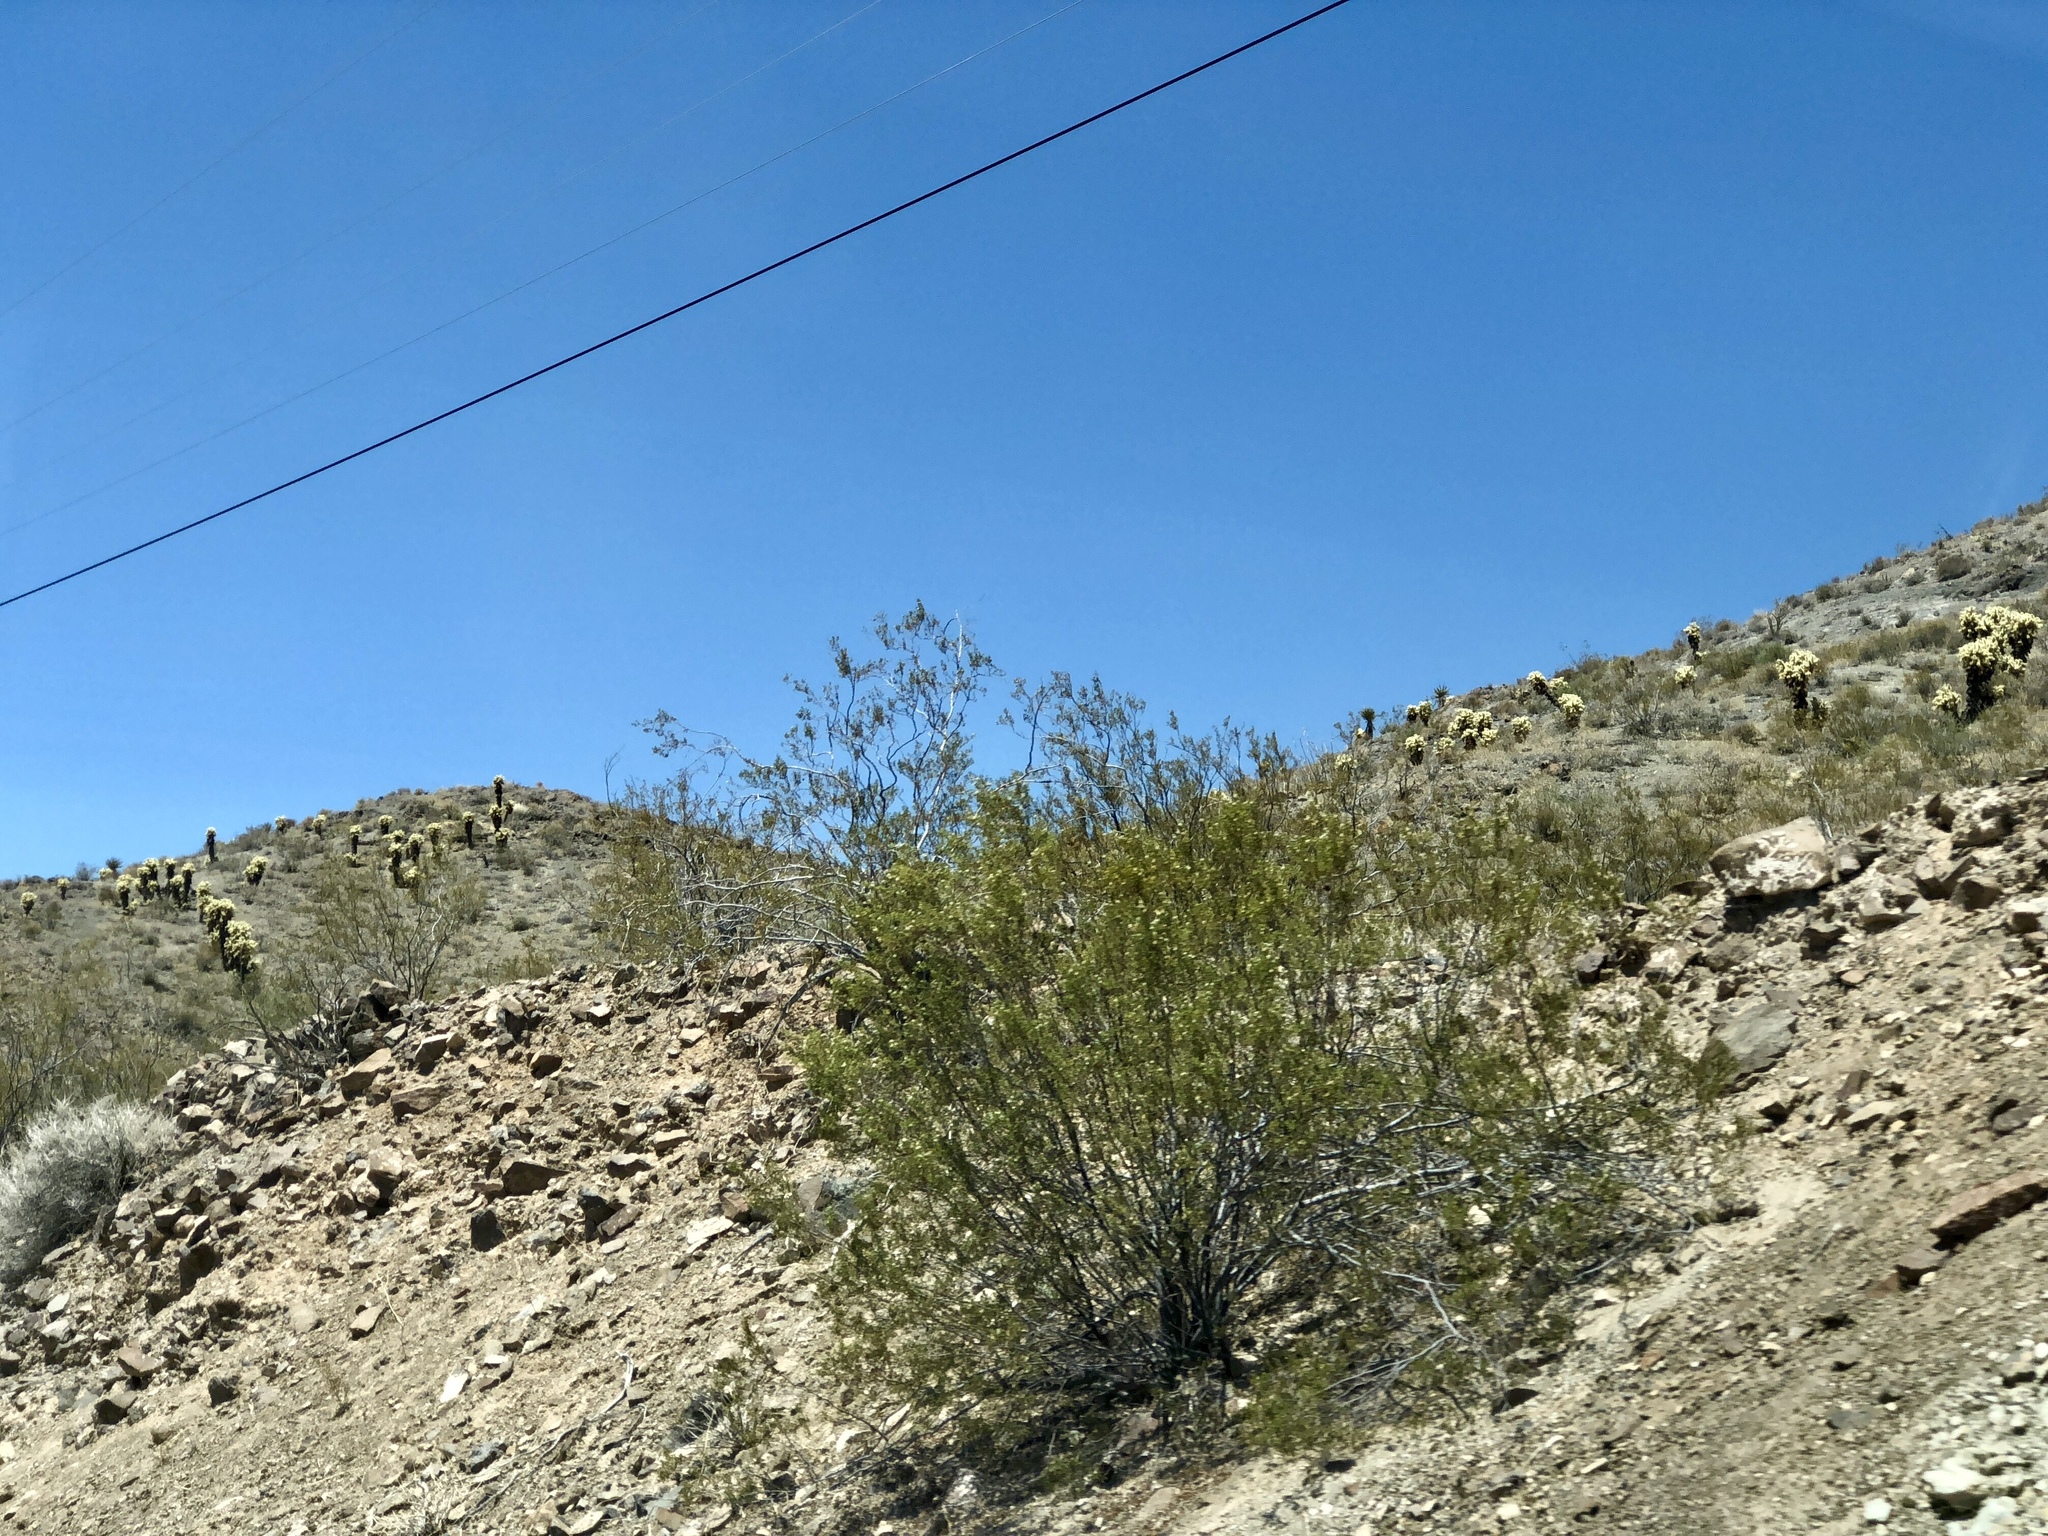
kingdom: Plantae
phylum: Tracheophyta
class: Magnoliopsida
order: Zygophyllales
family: Zygophyllaceae
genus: Larrea
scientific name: Larrea tridentata
